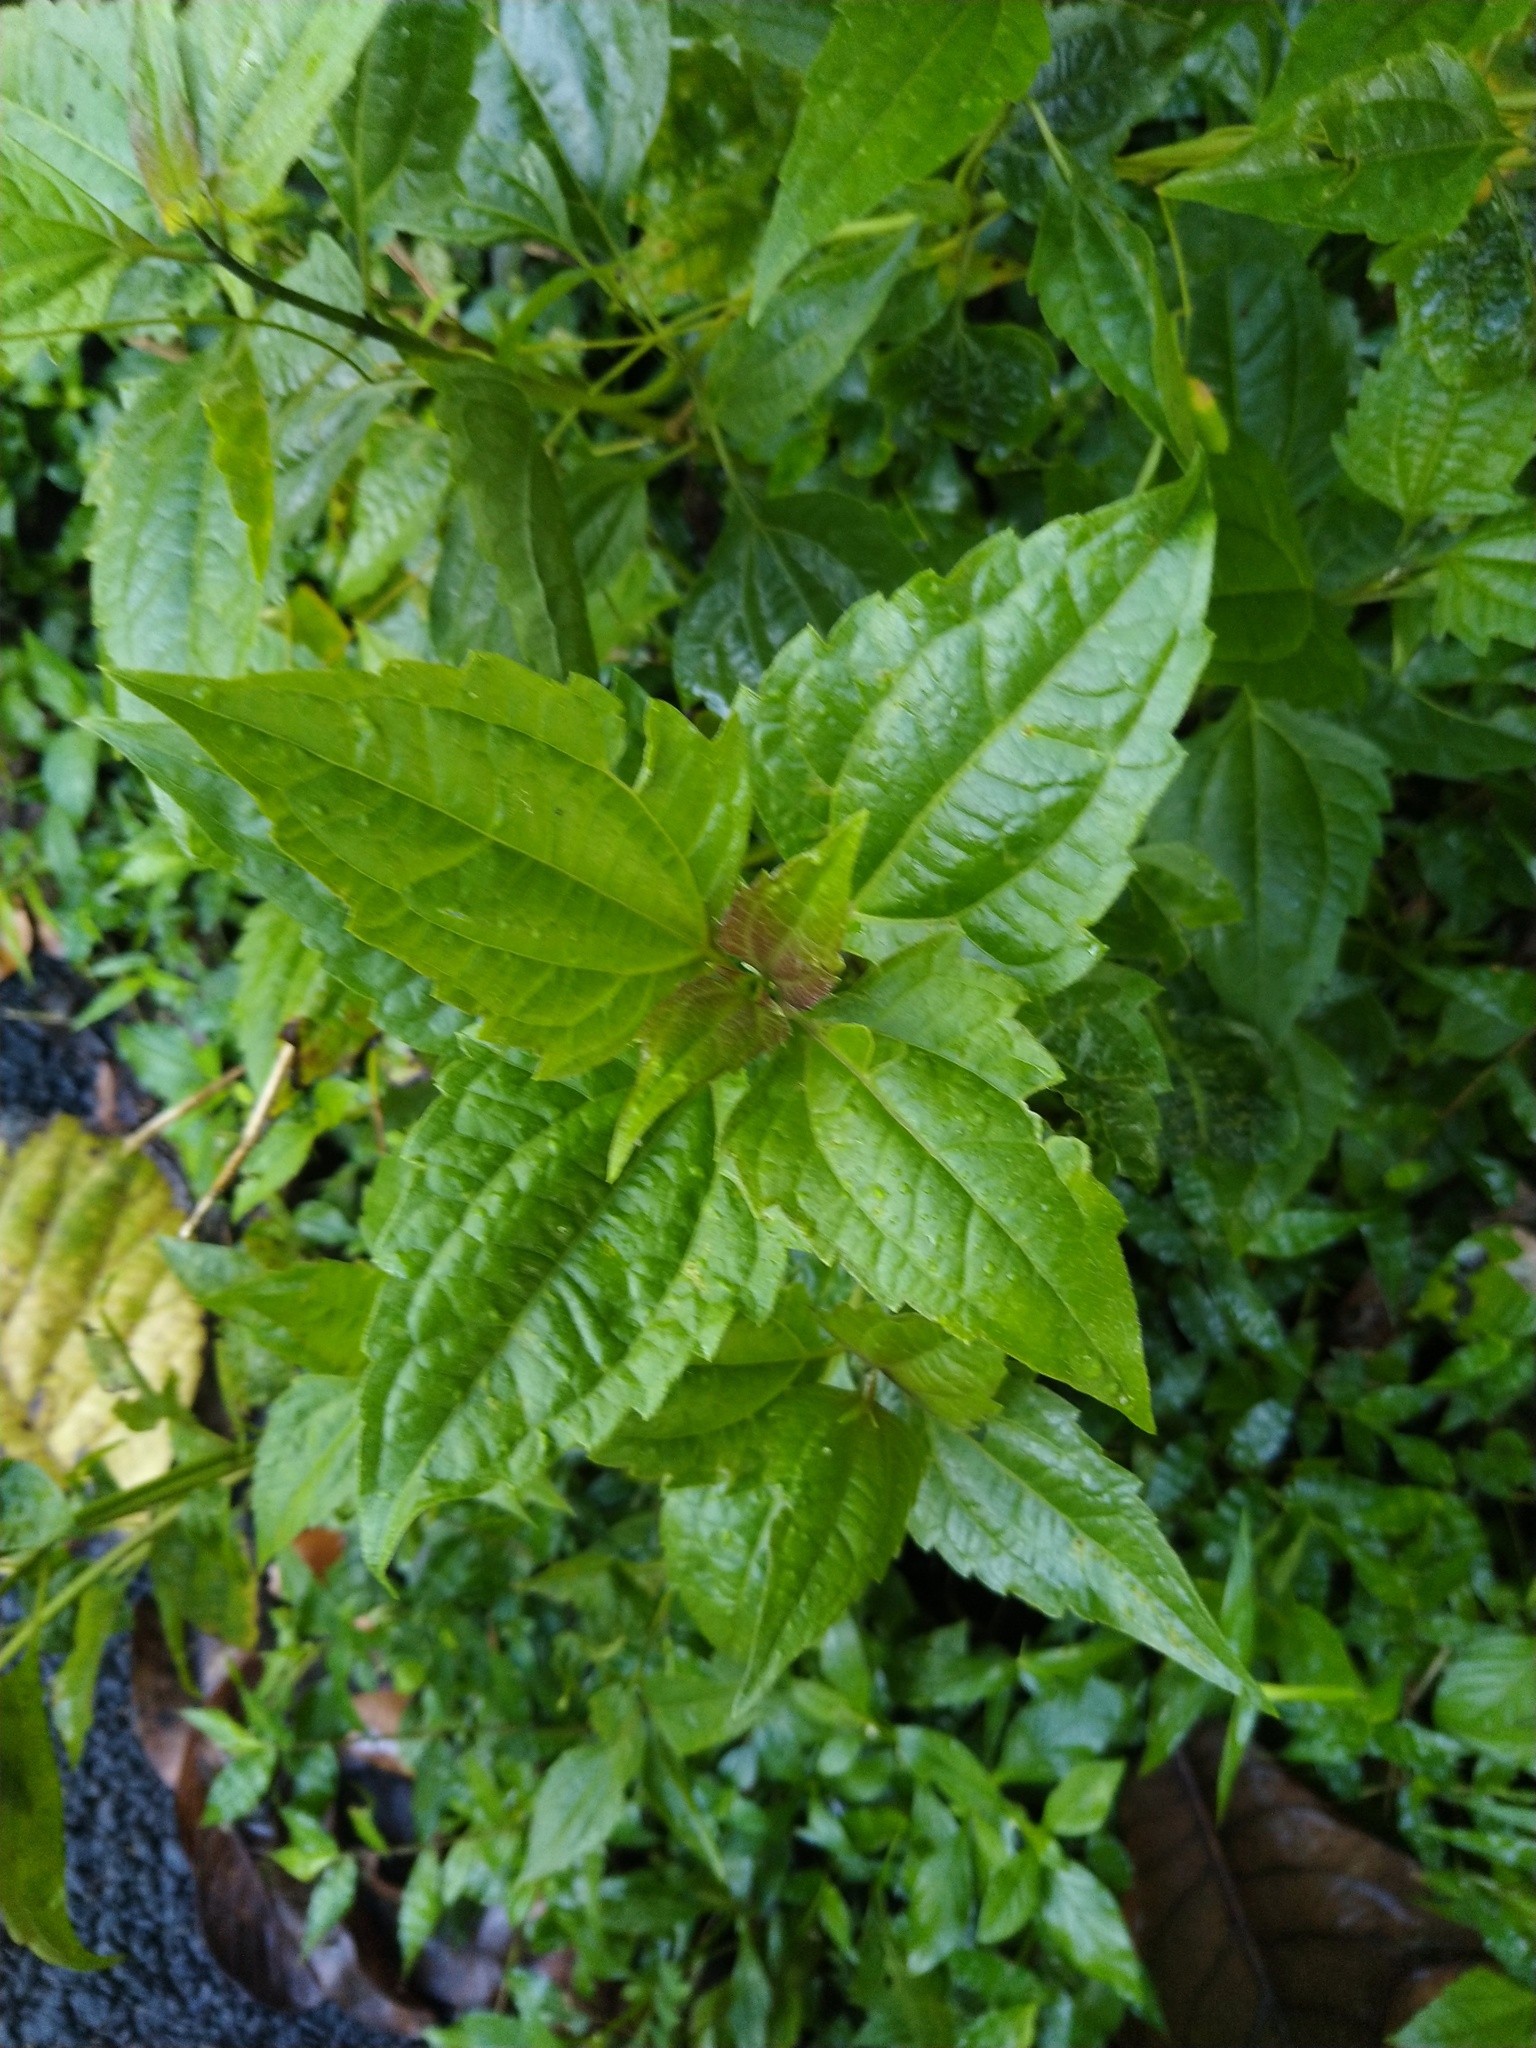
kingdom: Plantae
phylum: Tracheophyta
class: Magnoliopsida
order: Asterales
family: Asteraceae
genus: Chromolaena
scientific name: Chromolaena odorata
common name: Siamweed
